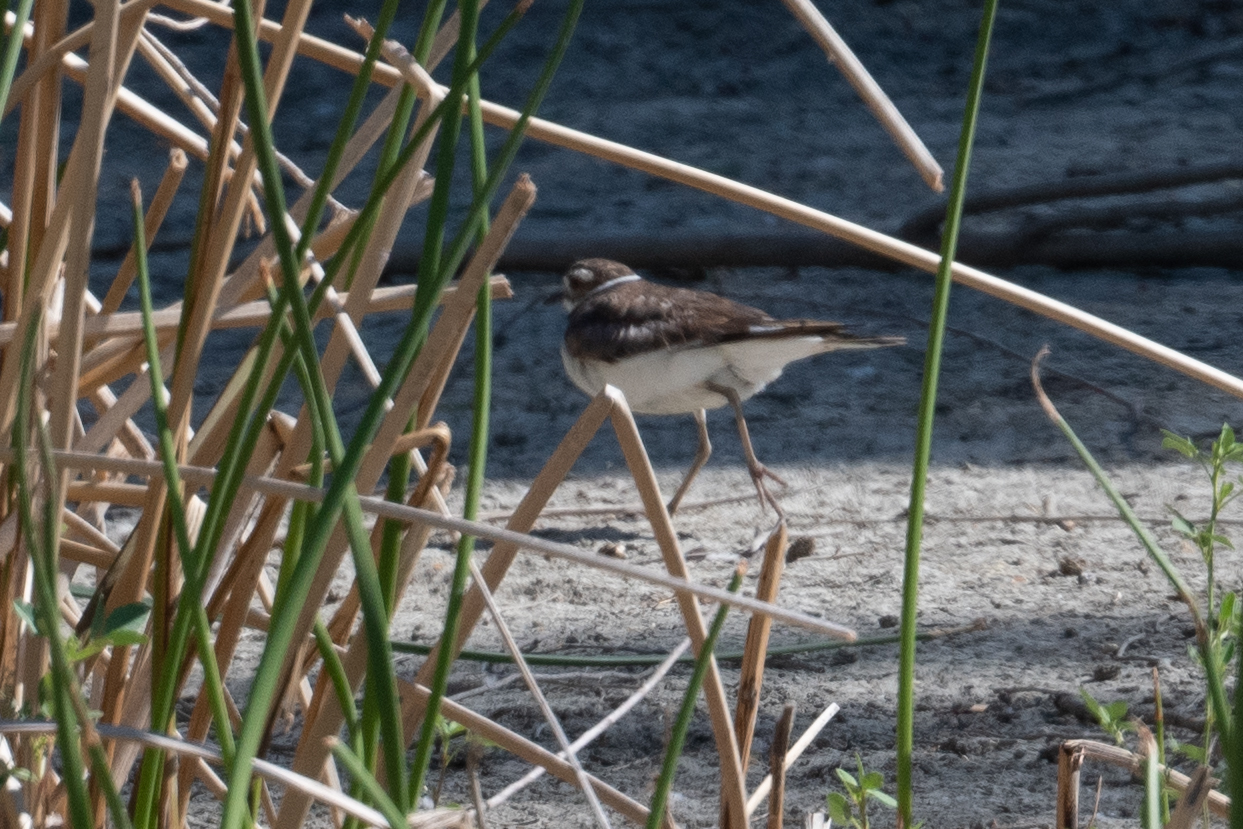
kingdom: Animalia
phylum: Chordata
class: Aves
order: Charadriiformes
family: Charadriidae
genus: Charadrius
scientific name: Charadrius vociferus
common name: Killdeer
